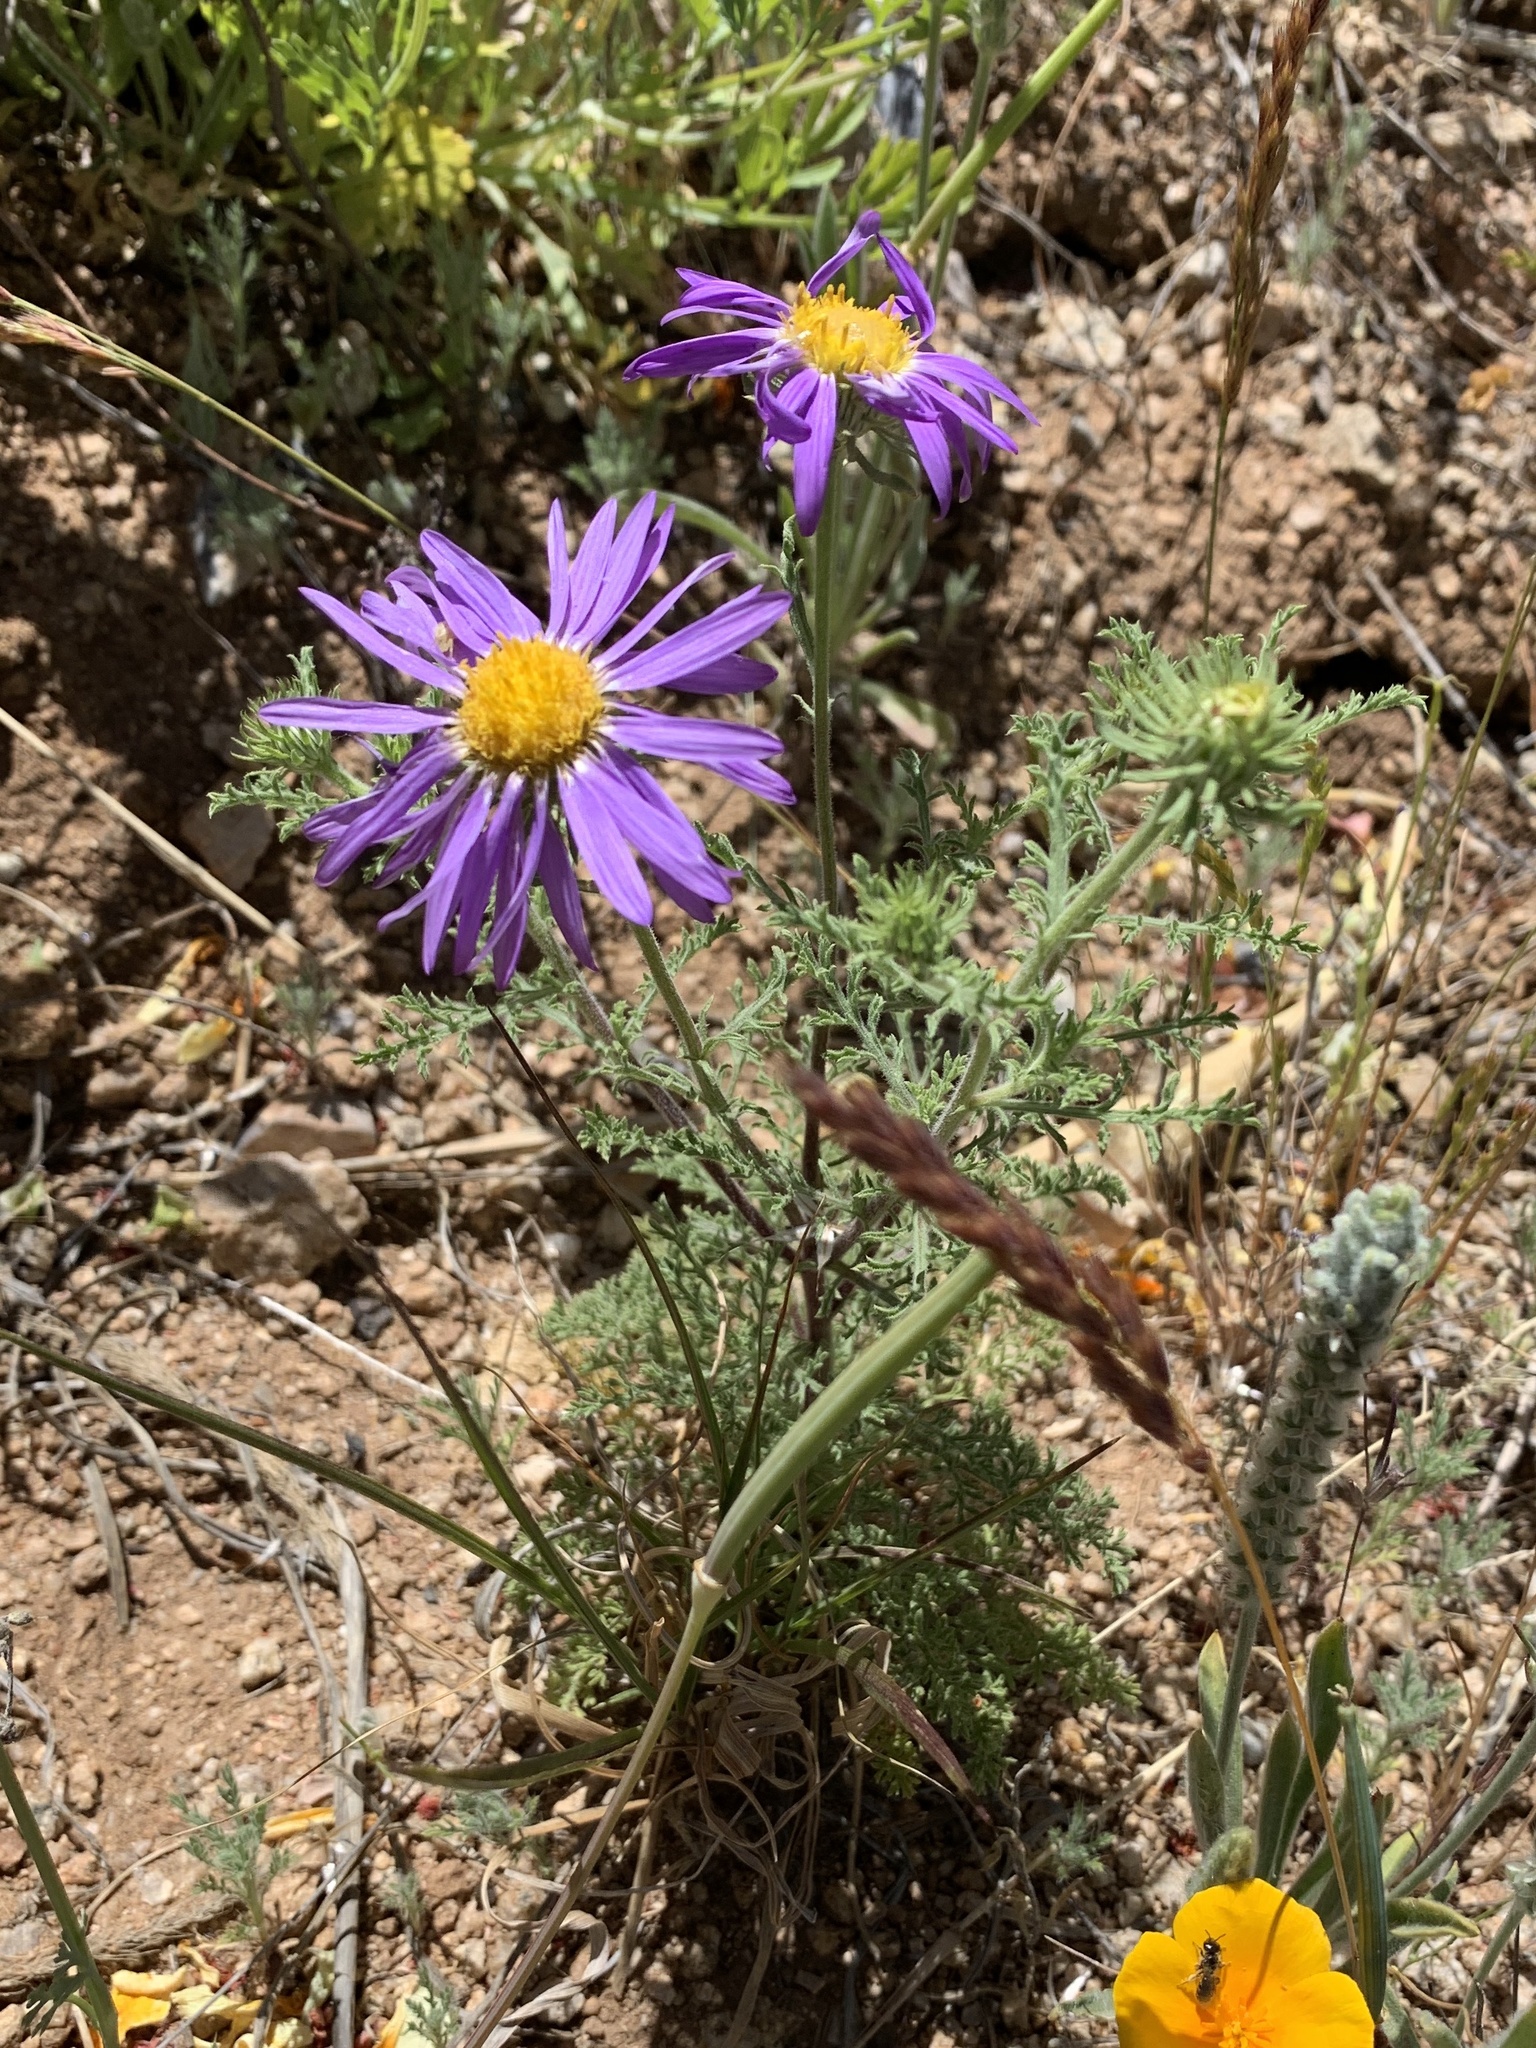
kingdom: Plantae
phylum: Tracheophyta
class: Magnoliopsida
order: Asterales
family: Asteraceae
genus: Machaeranthera
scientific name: Machaeranthera tanacetifolia
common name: Tansy-aster
